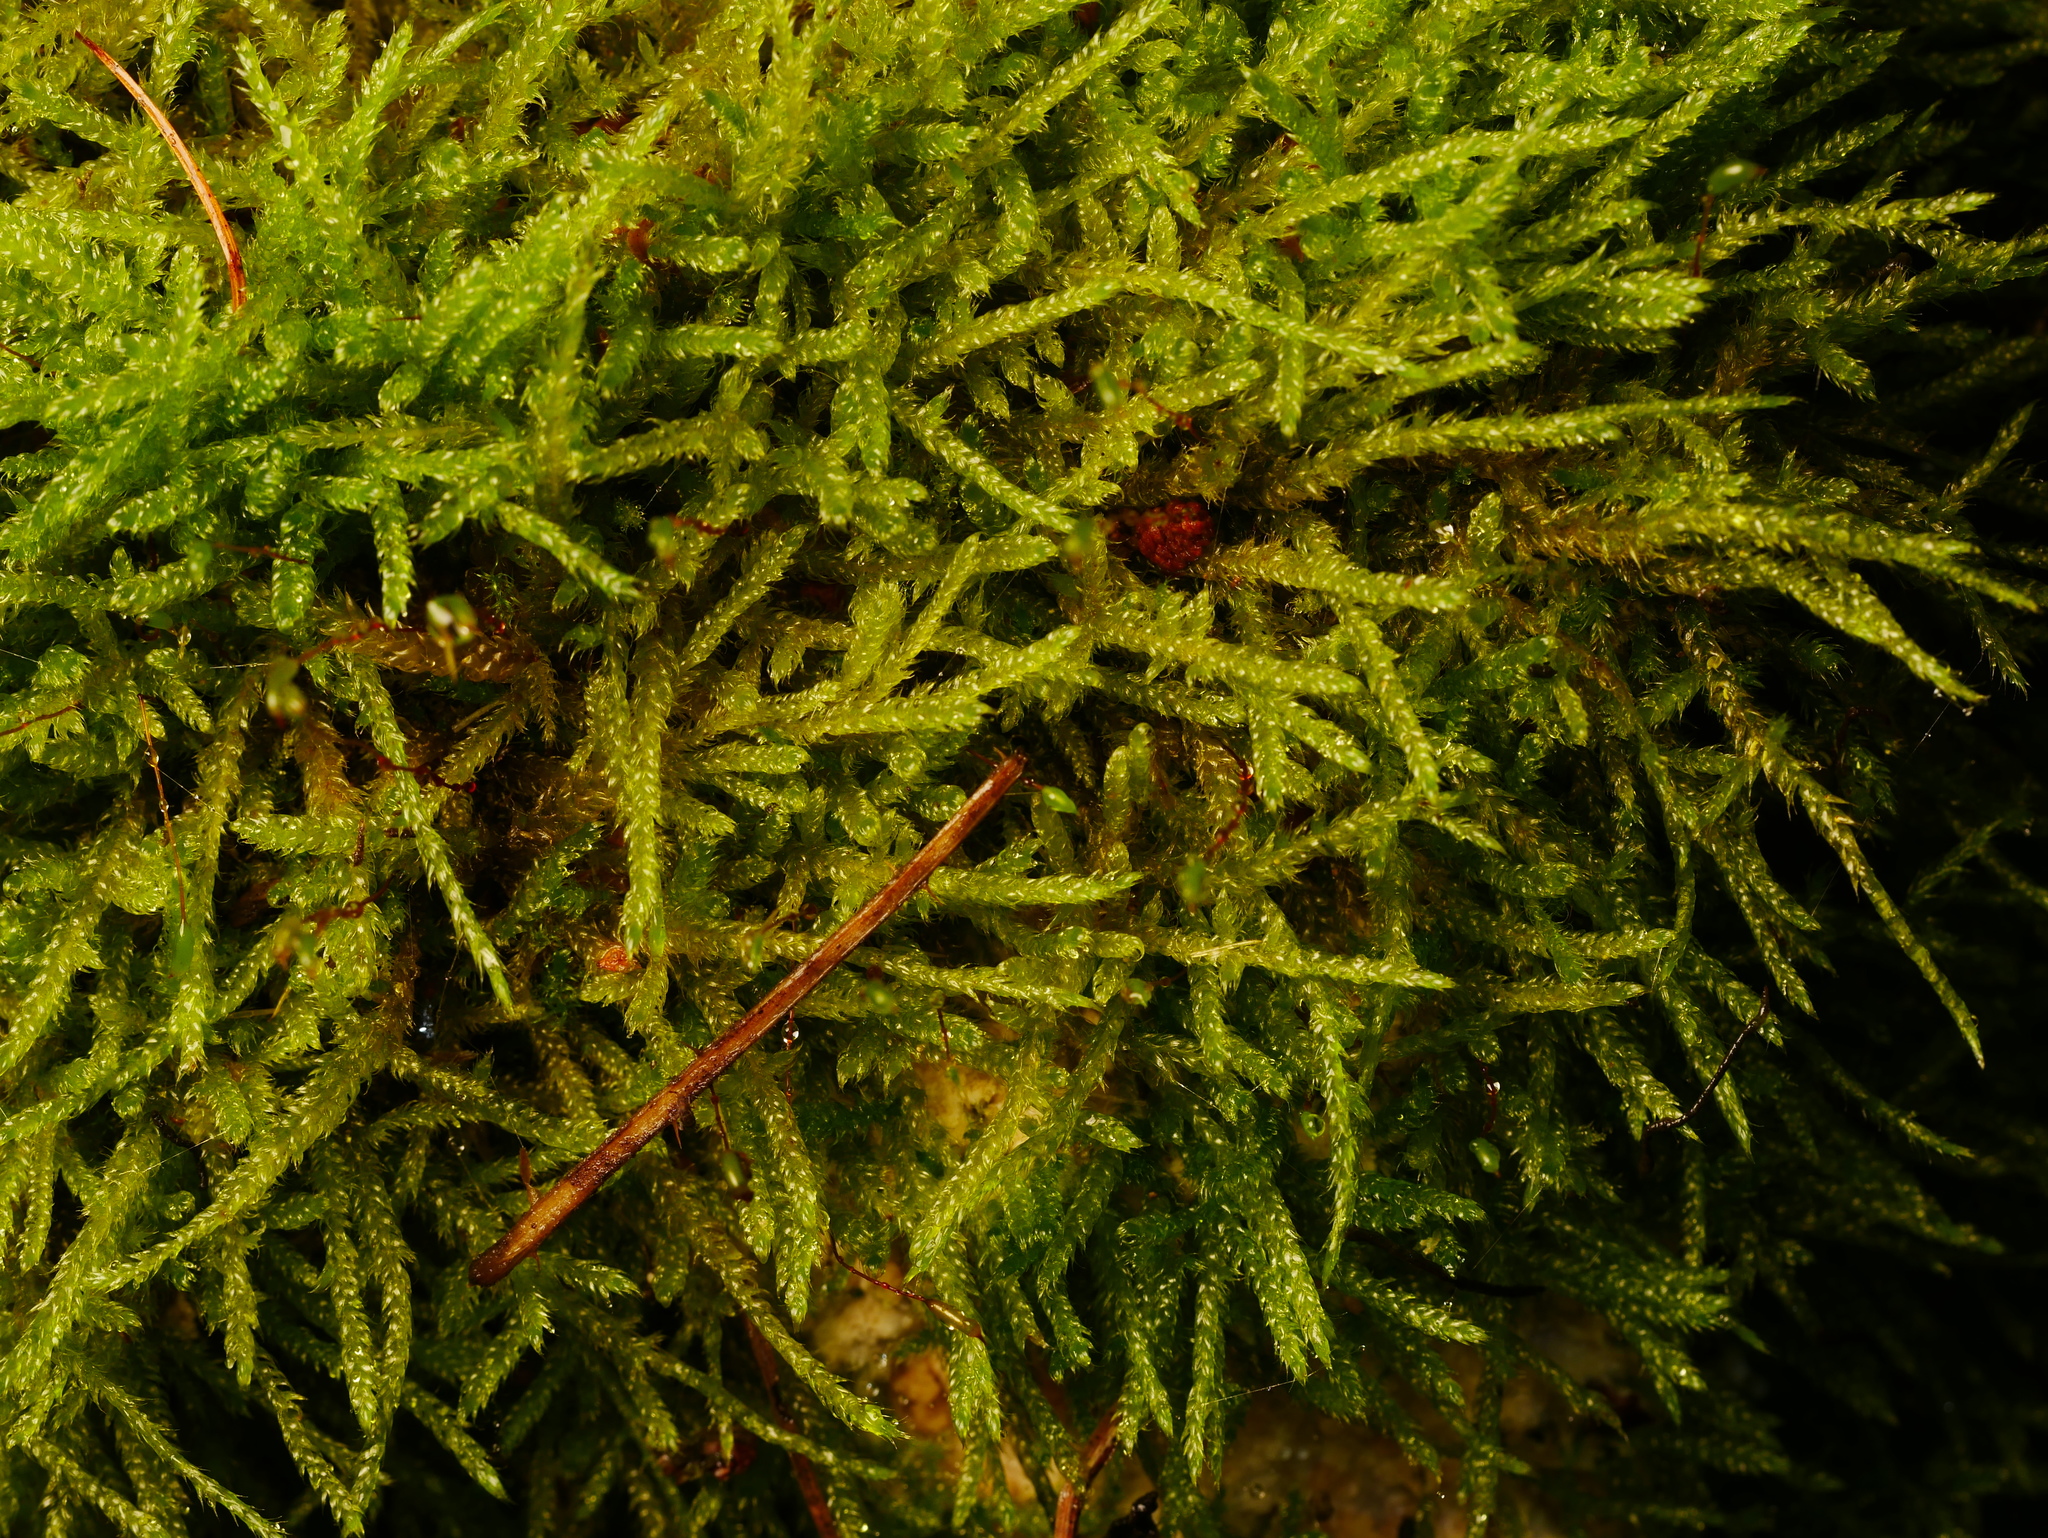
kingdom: Plantae
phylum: Bryophyta
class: Bryopsida
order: Hypnales
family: Hypnaceae
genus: Hypnum
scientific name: Hypnum cupressiforme
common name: Cypress-leaved plait-moss
